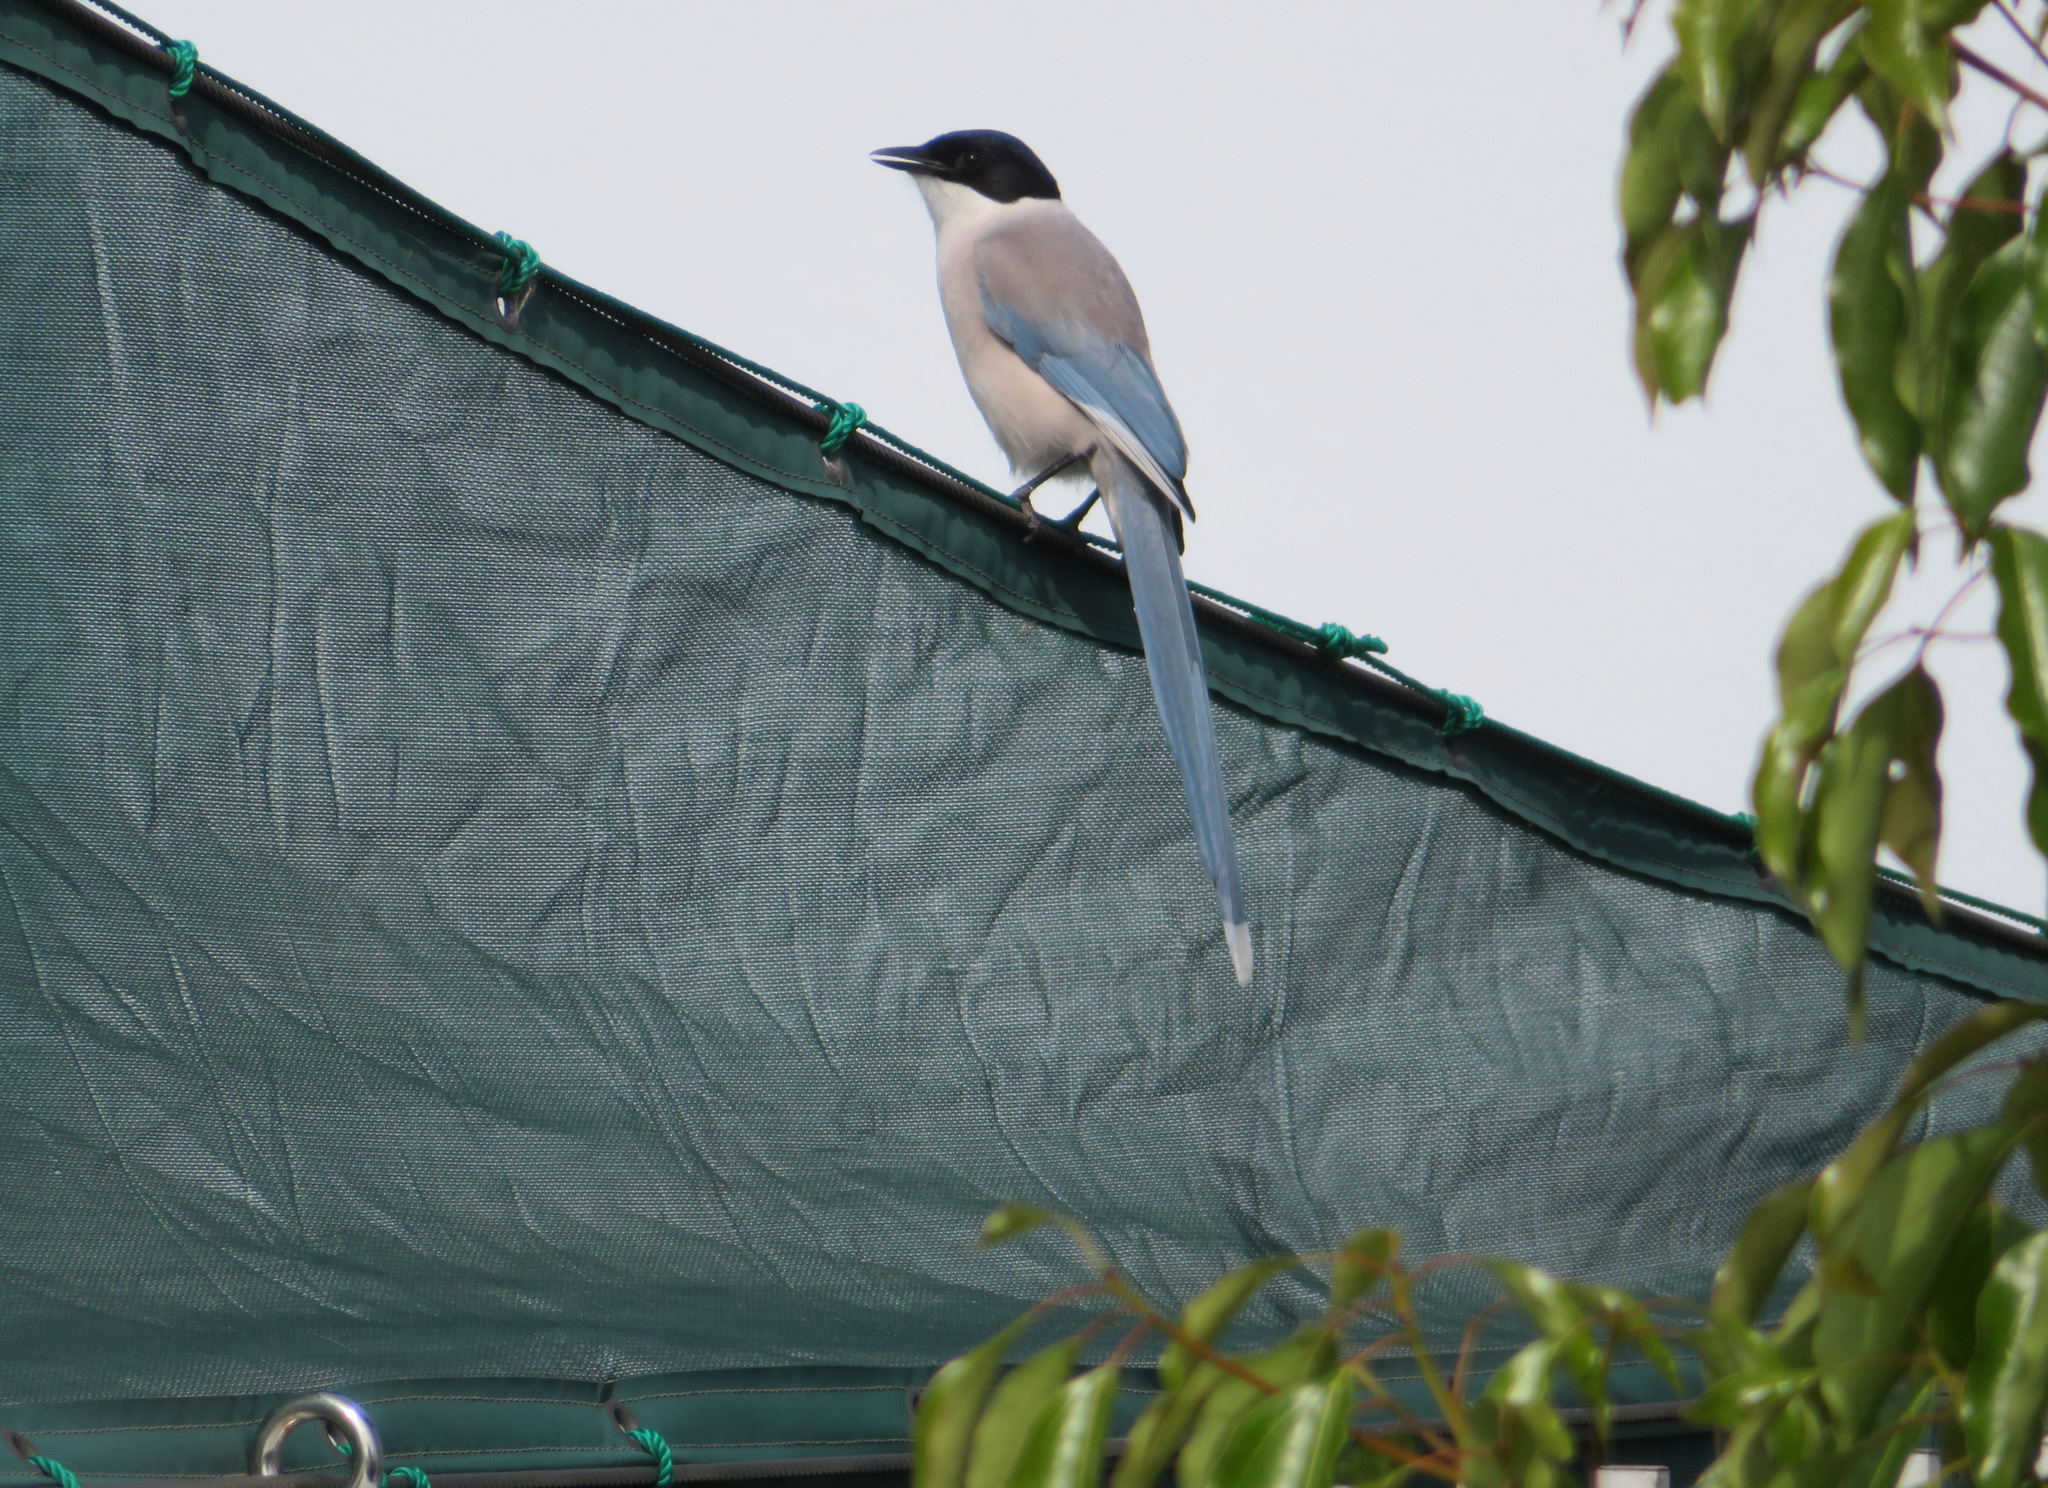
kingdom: Animalia
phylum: Chordata
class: Aves
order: Passeriformes
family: Corvidae
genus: Cyanopica
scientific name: Cyanopica cyanus
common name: Azure-winged magpie
